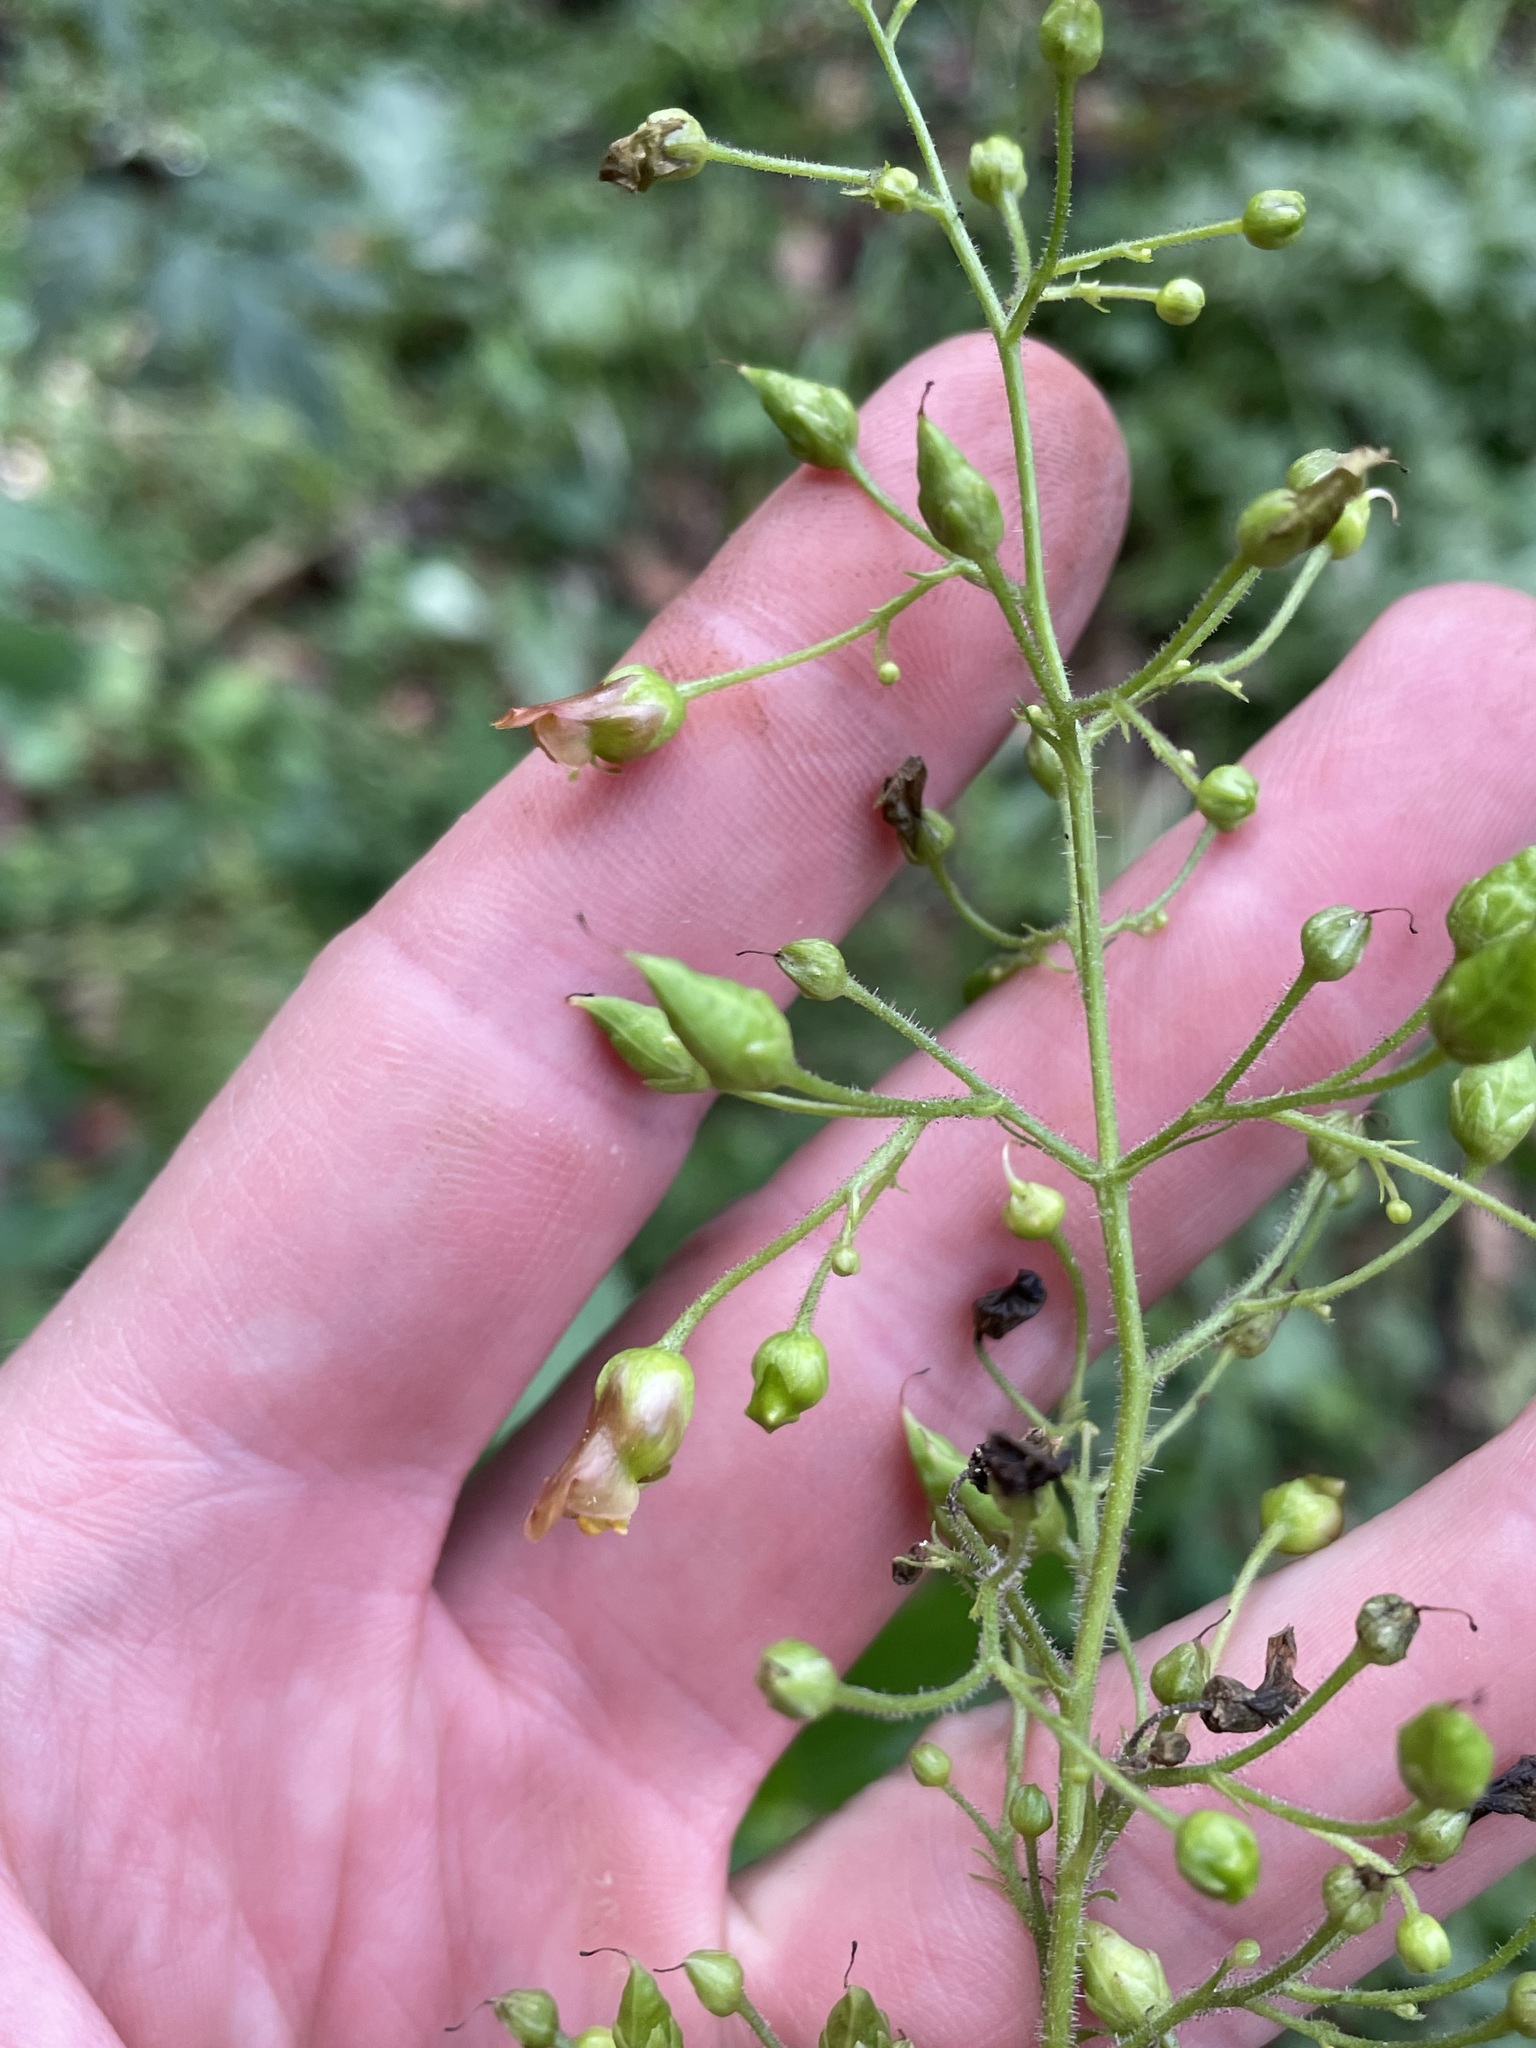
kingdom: Plantae
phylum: Tracheophyta
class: Magnoliopsida
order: Lamiales
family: Scrophulariaceae
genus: Scrophularia
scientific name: Scrophularia montana
